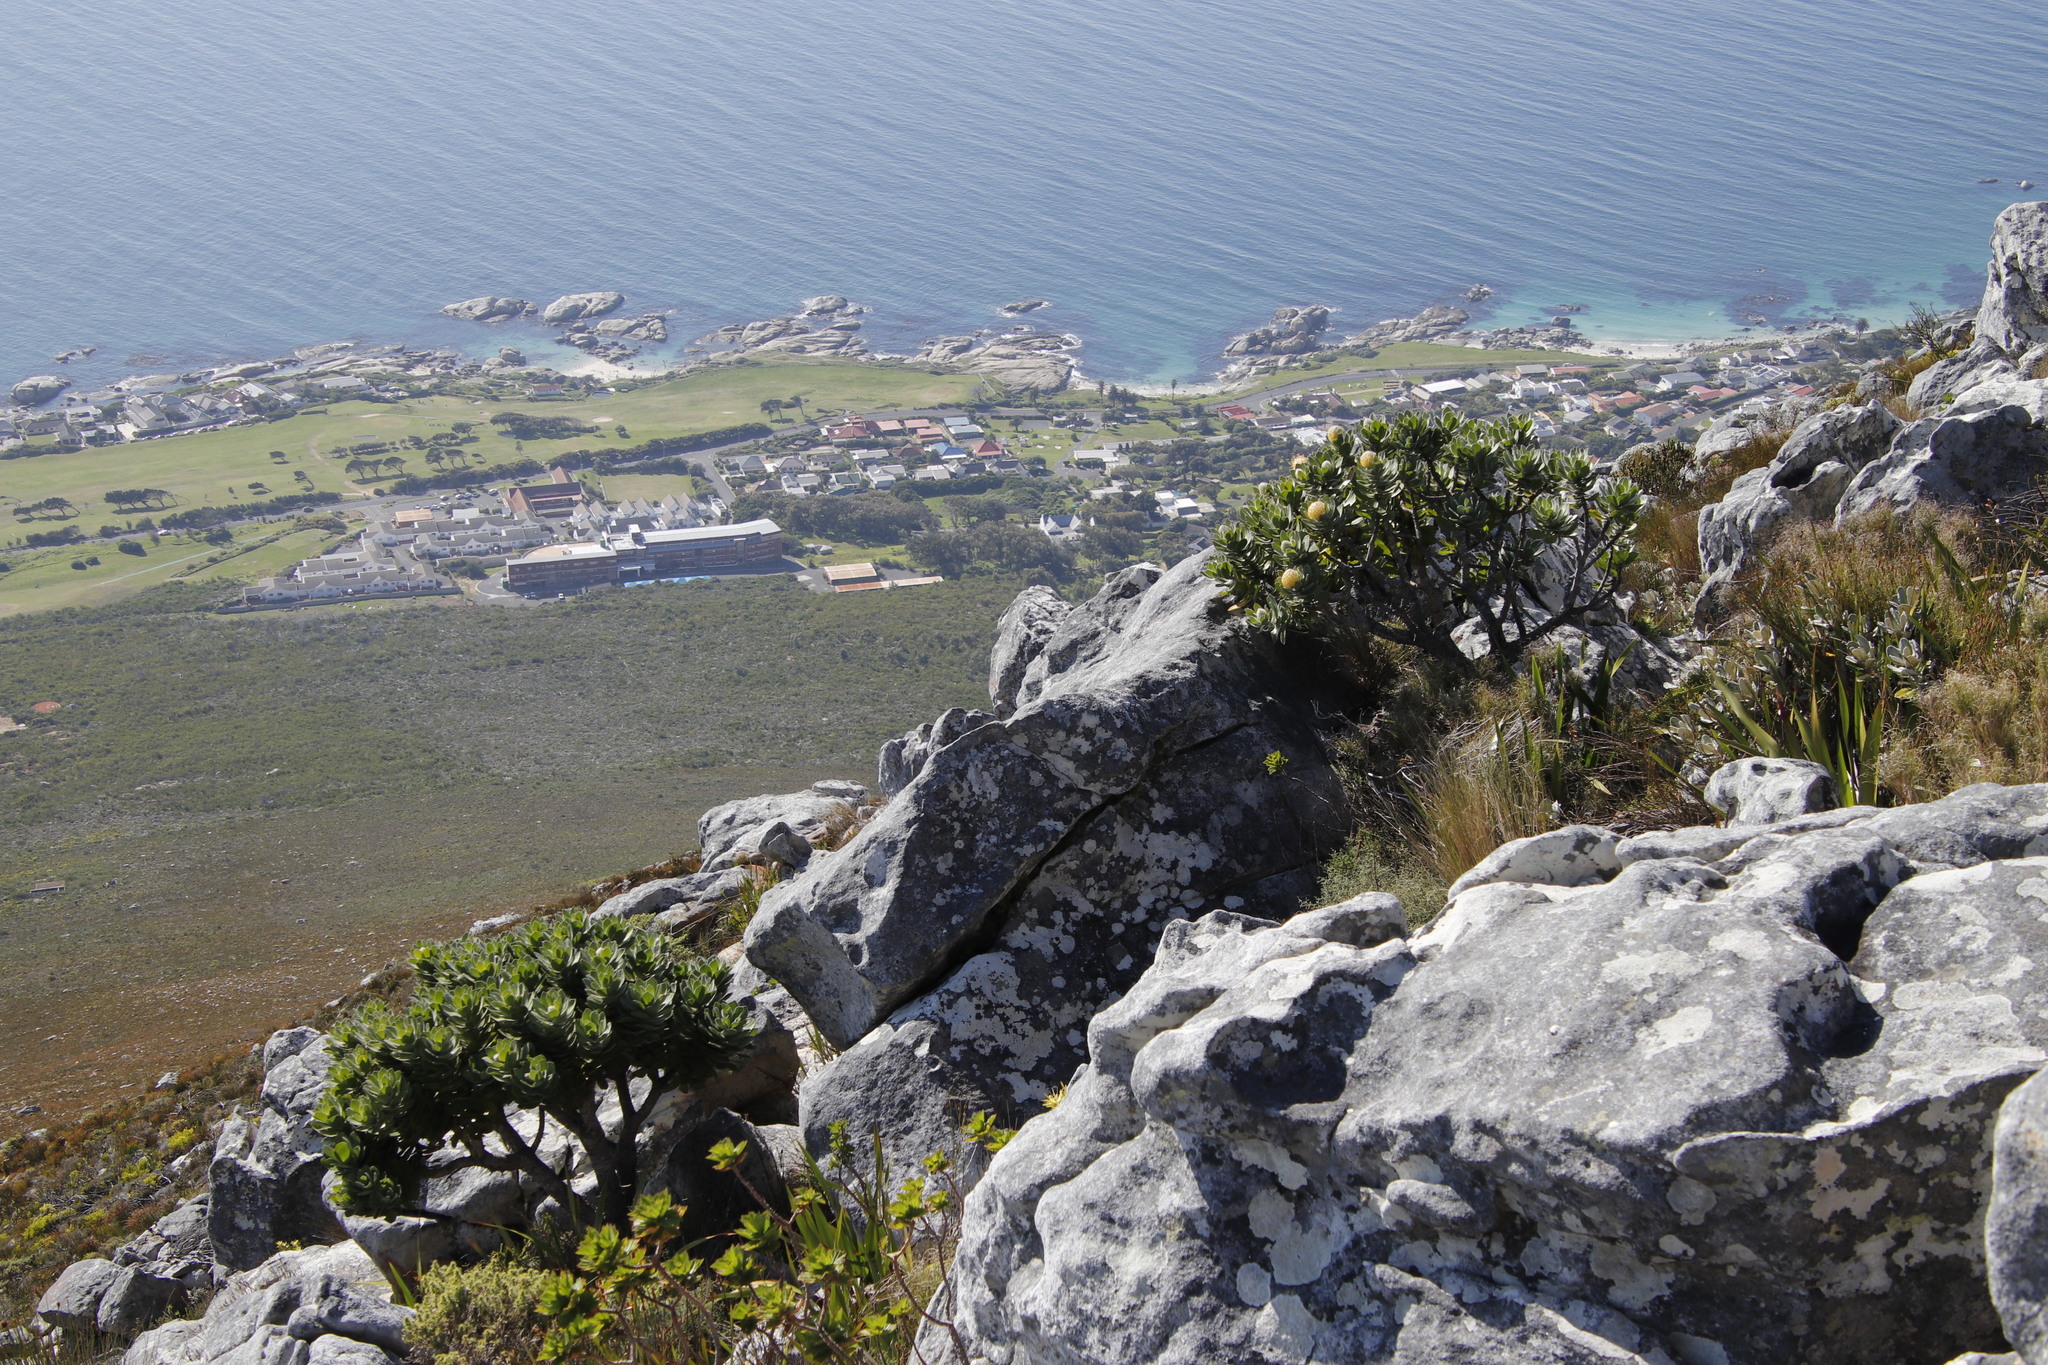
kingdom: Plantae
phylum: Tracheophyta
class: Magnoliopsida
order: Proteales
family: Proteaceae
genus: Leucospermum
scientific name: Leucospermum conocarpodendron
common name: Tree pincushion
